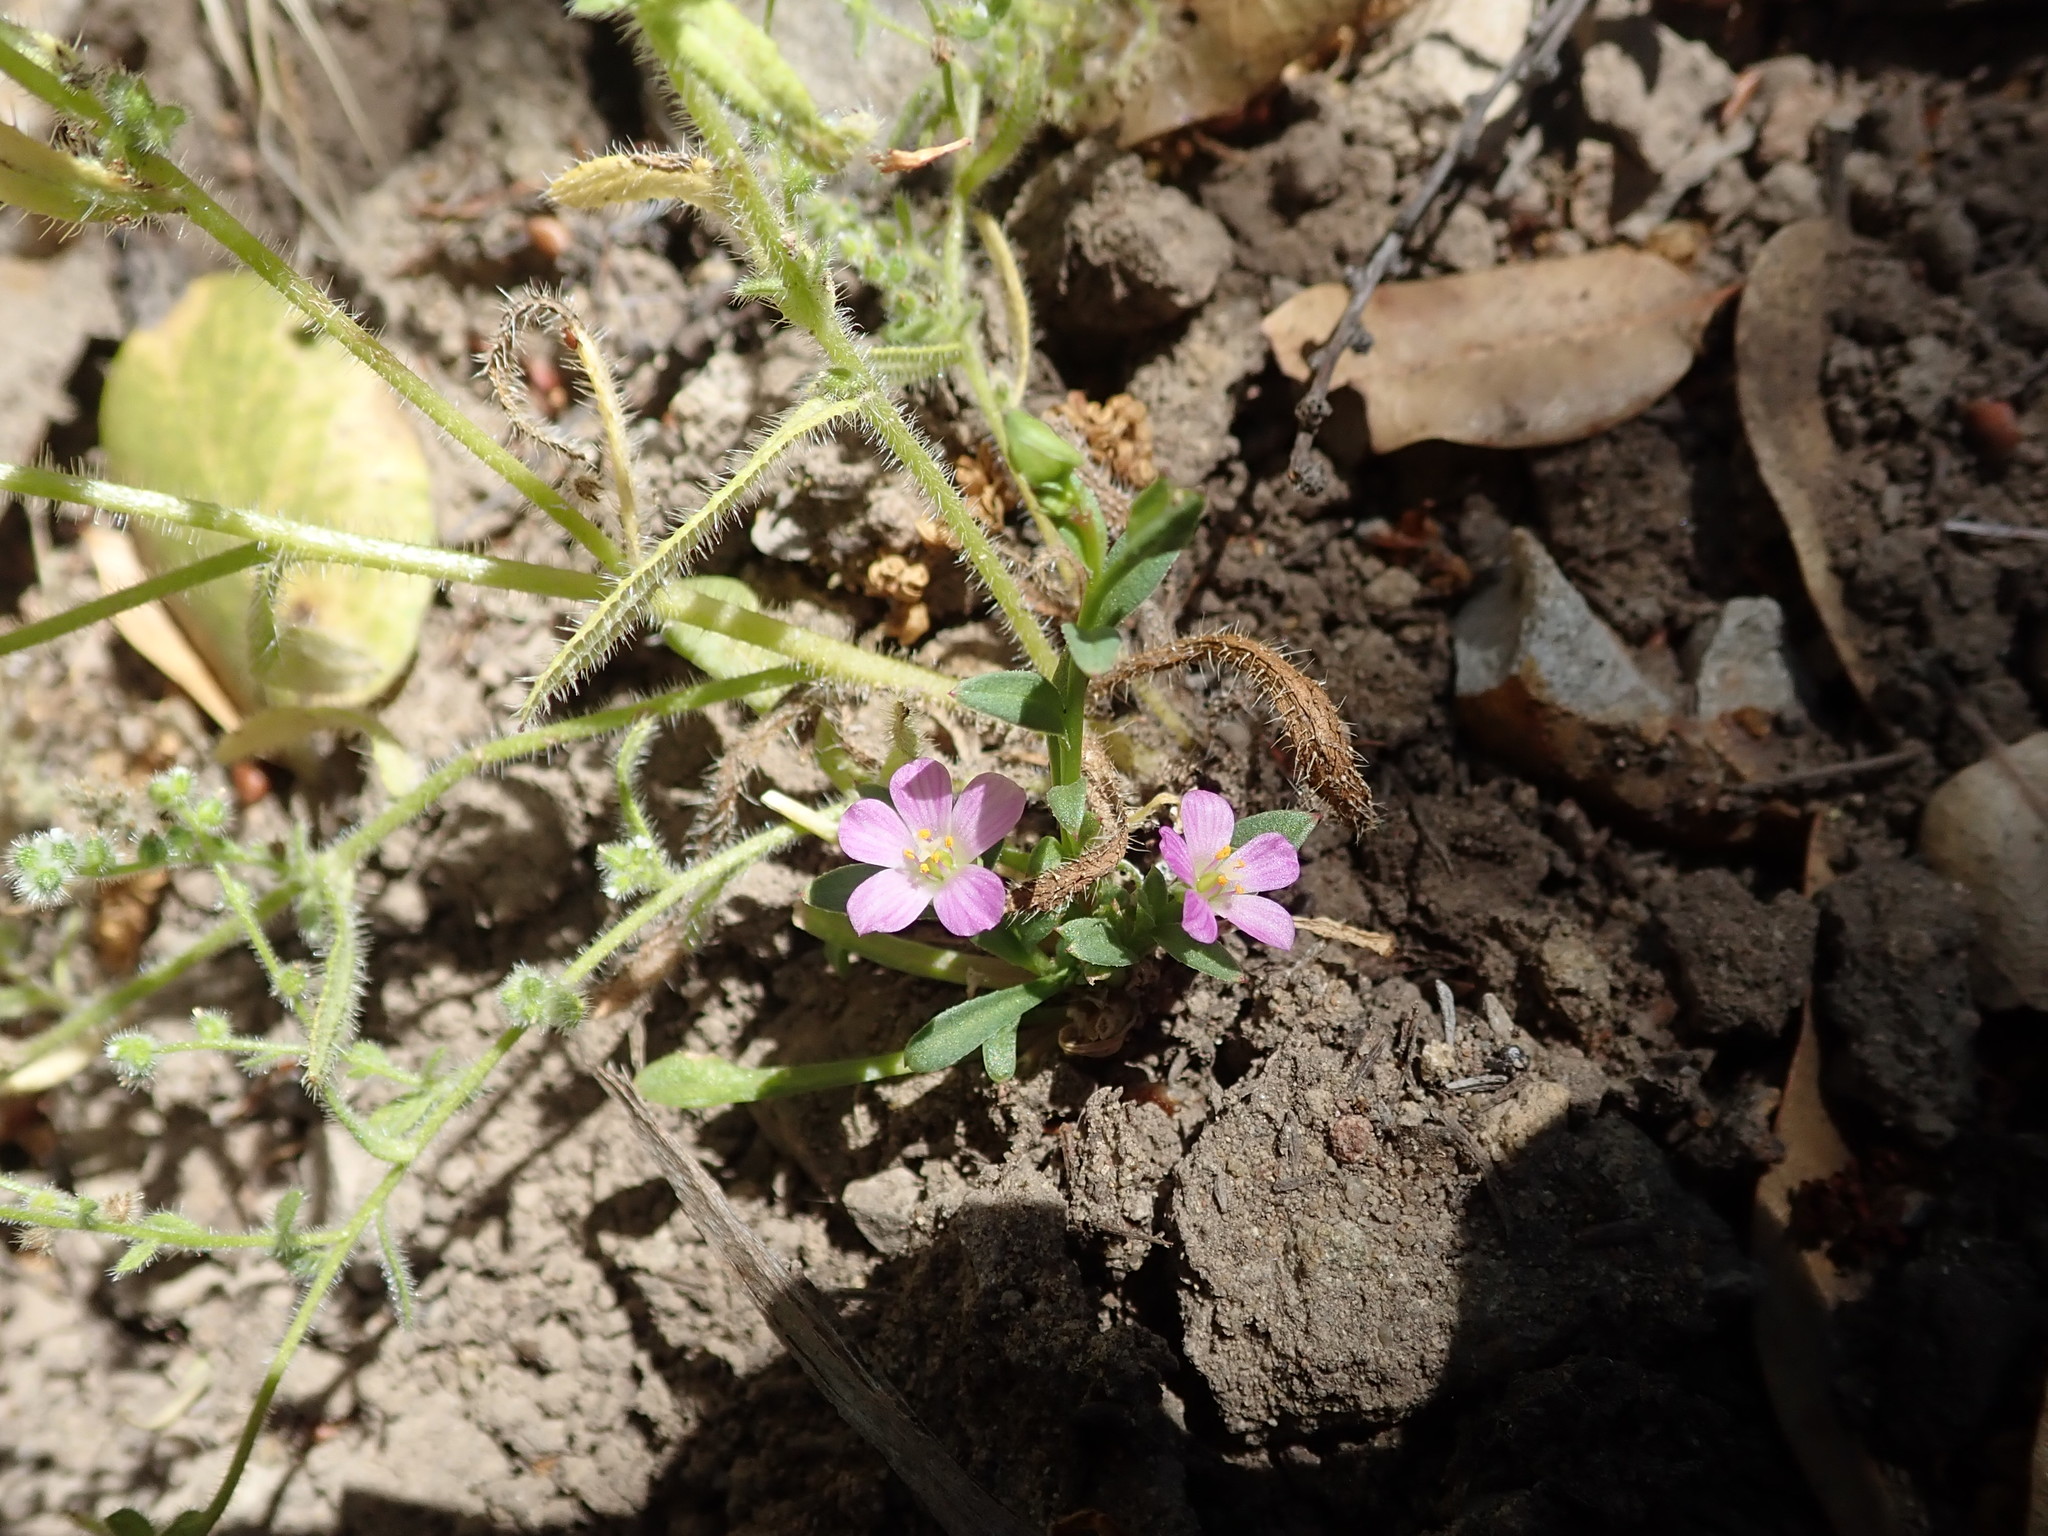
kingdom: Plantae
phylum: Tracheophyta
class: Magnoliopsida
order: Caryophyllales
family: Montiaceae
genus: Calandrinia
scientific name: Calandrinia breweri
